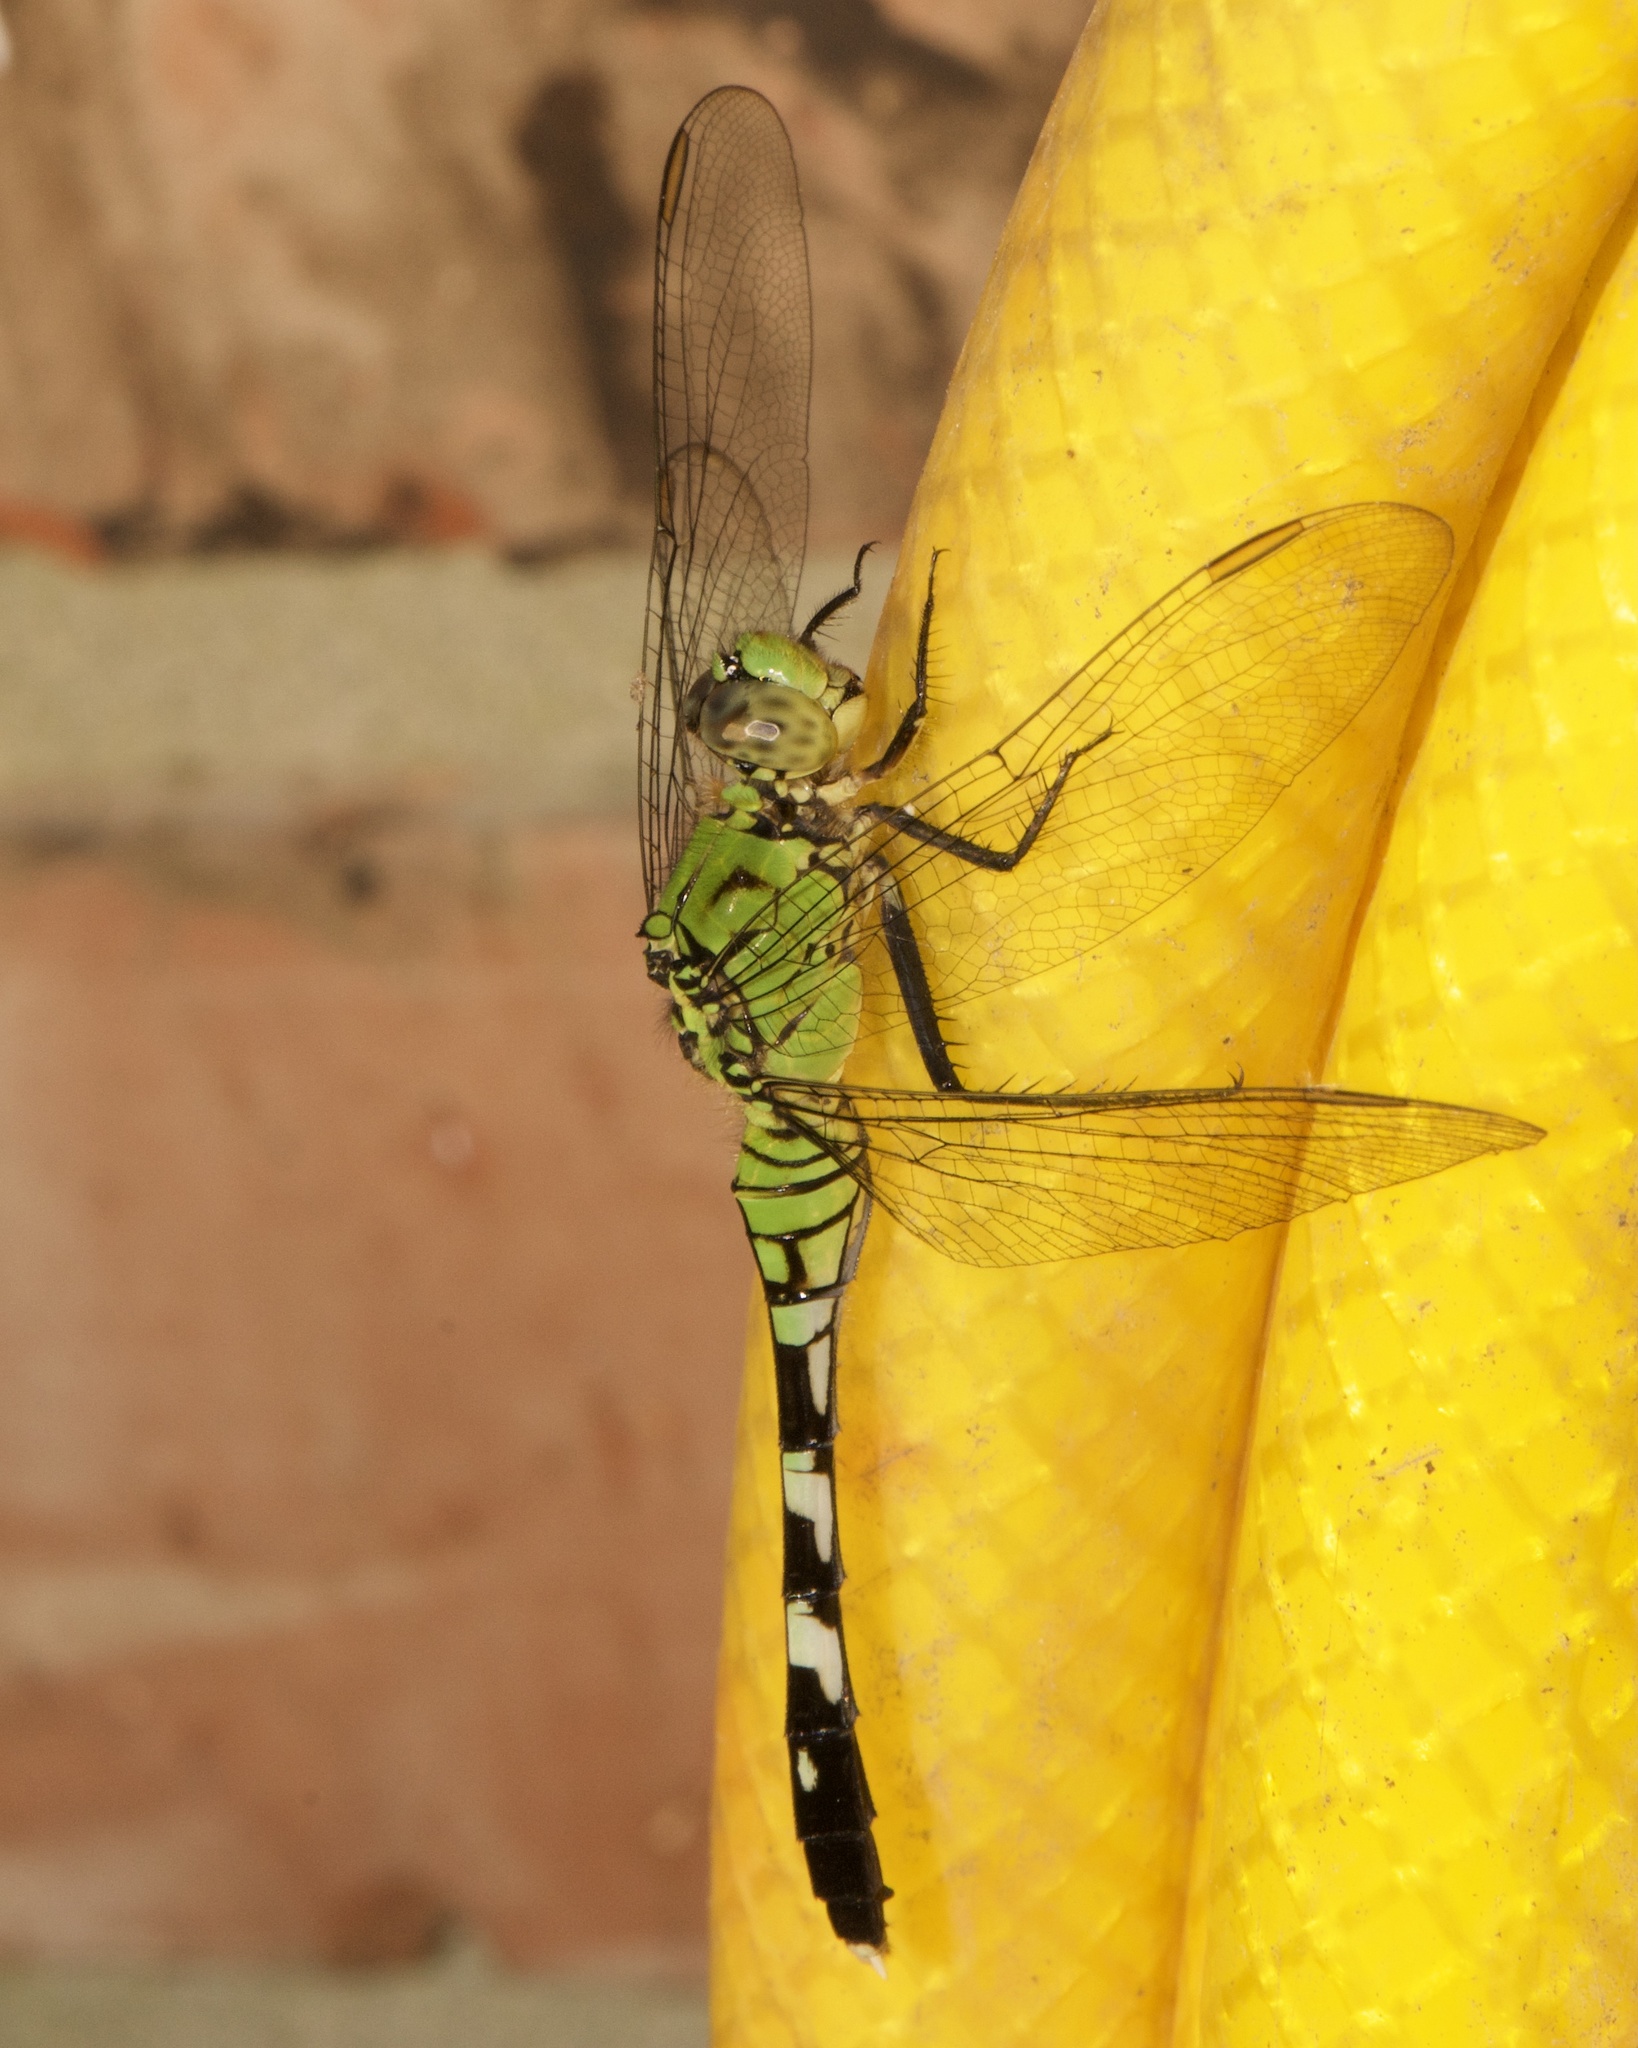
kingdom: Animalia
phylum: Arthropoda
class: Insecta
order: Odonata
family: Libellulidae
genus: Erythemis
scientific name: Erythemis simplicicollis
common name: Eastern pondhawk
